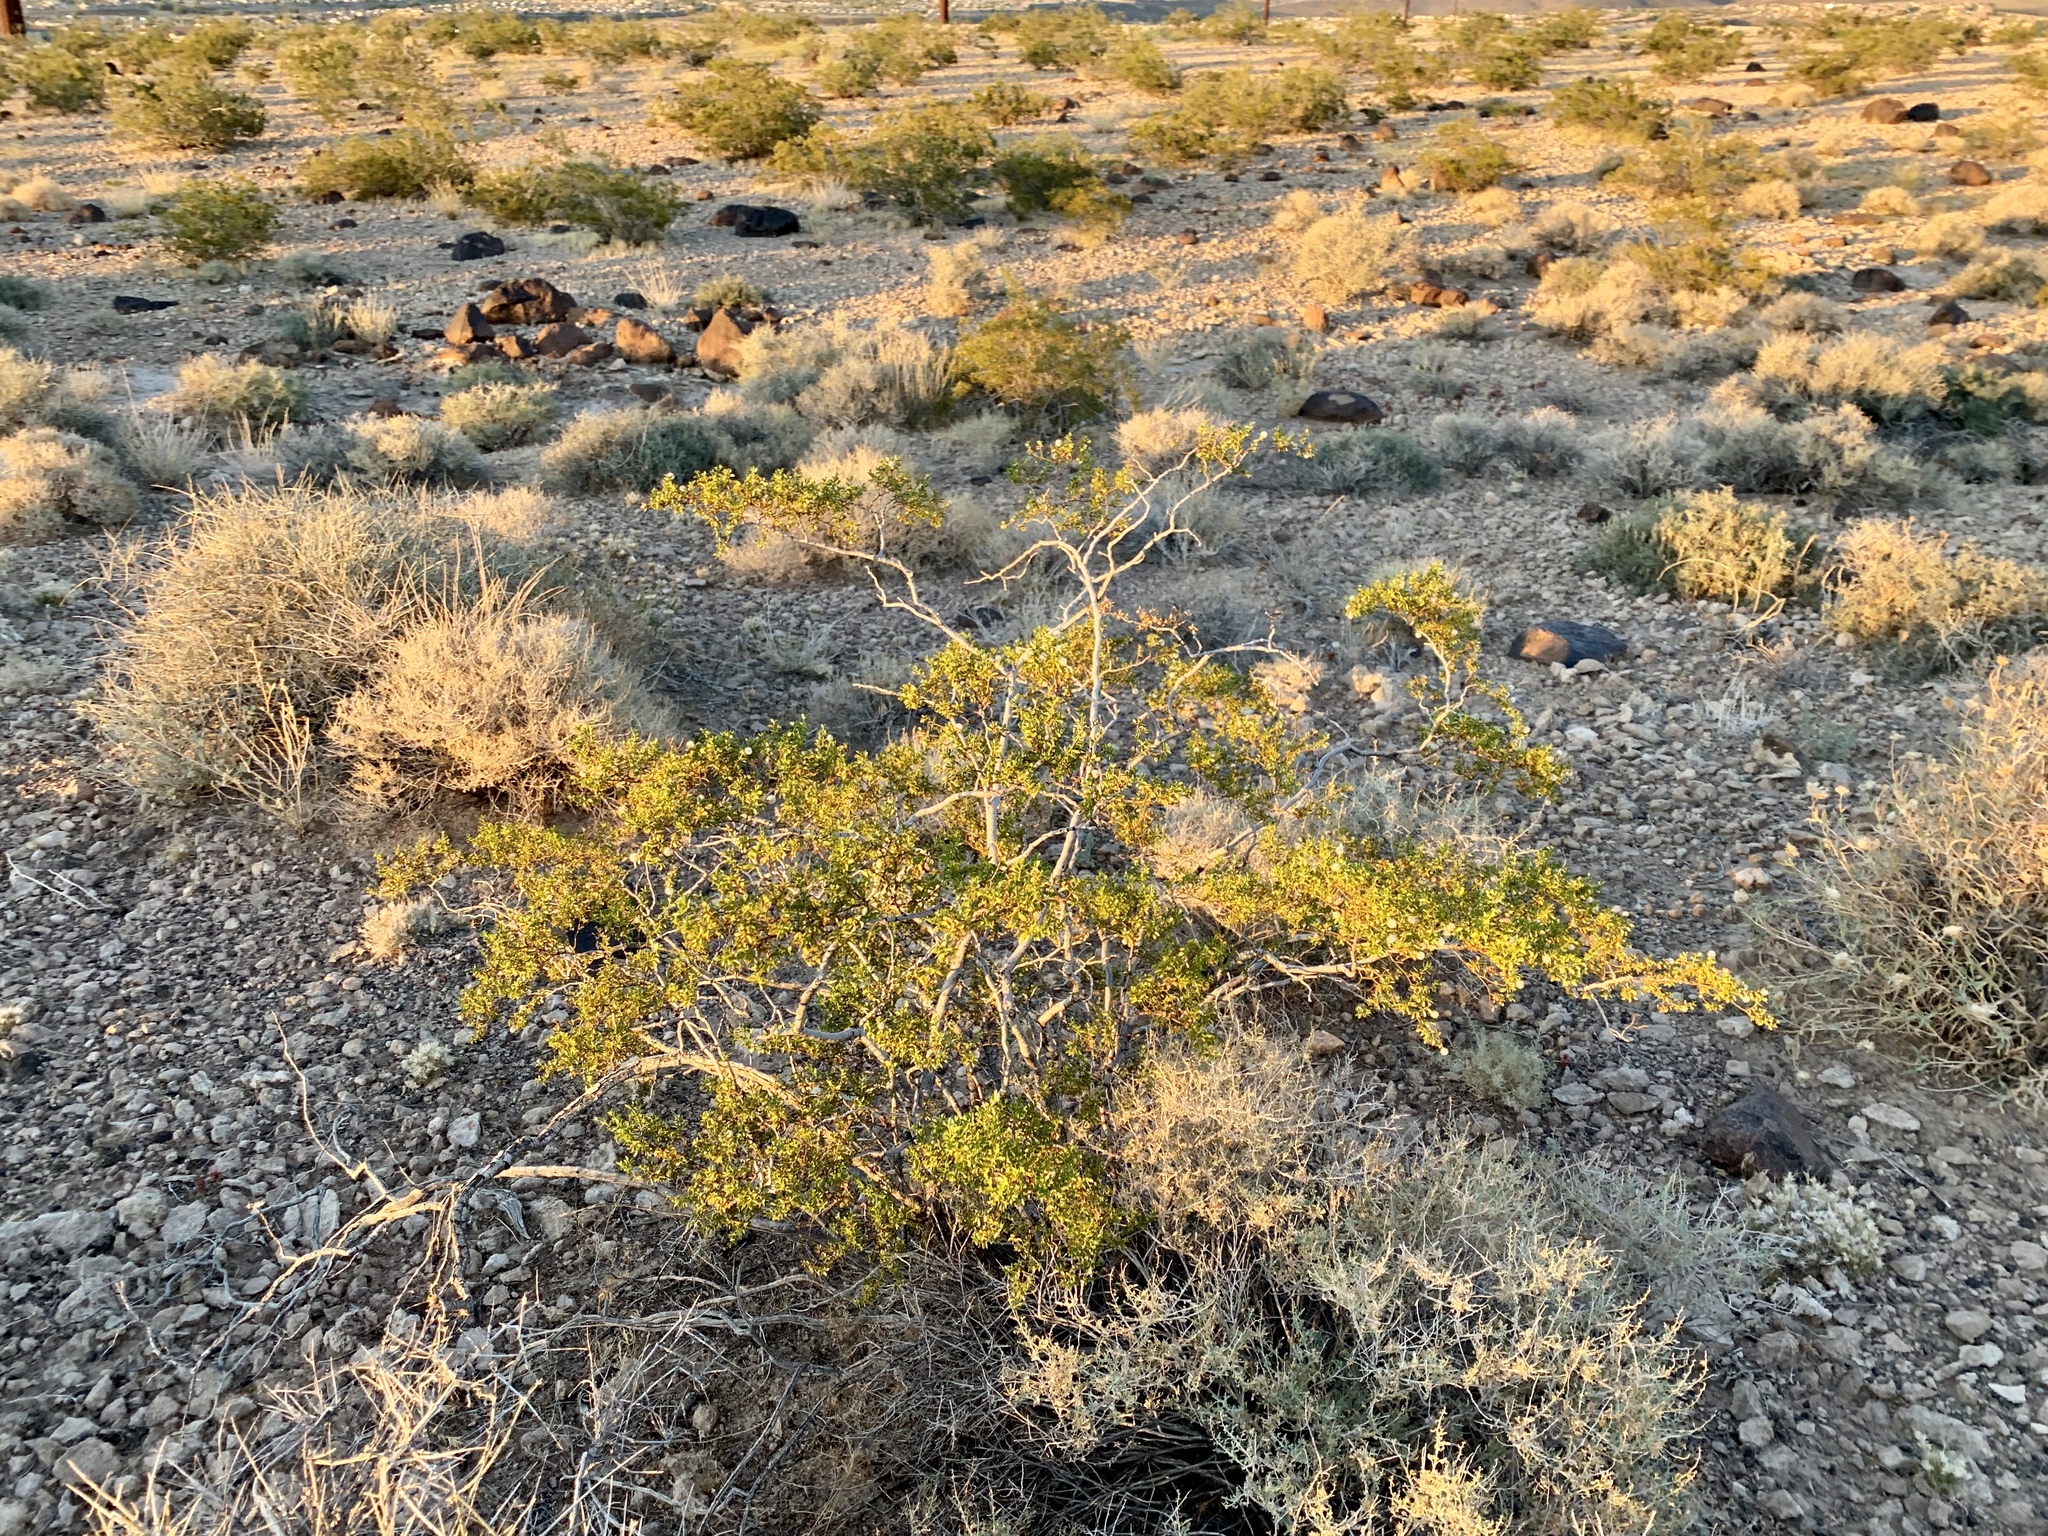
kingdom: Plantae
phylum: Tracheophyta
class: Magnoliopsida
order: Zygophyllales
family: Zygophyllaceae
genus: Larrea
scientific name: Larrea tridentata
